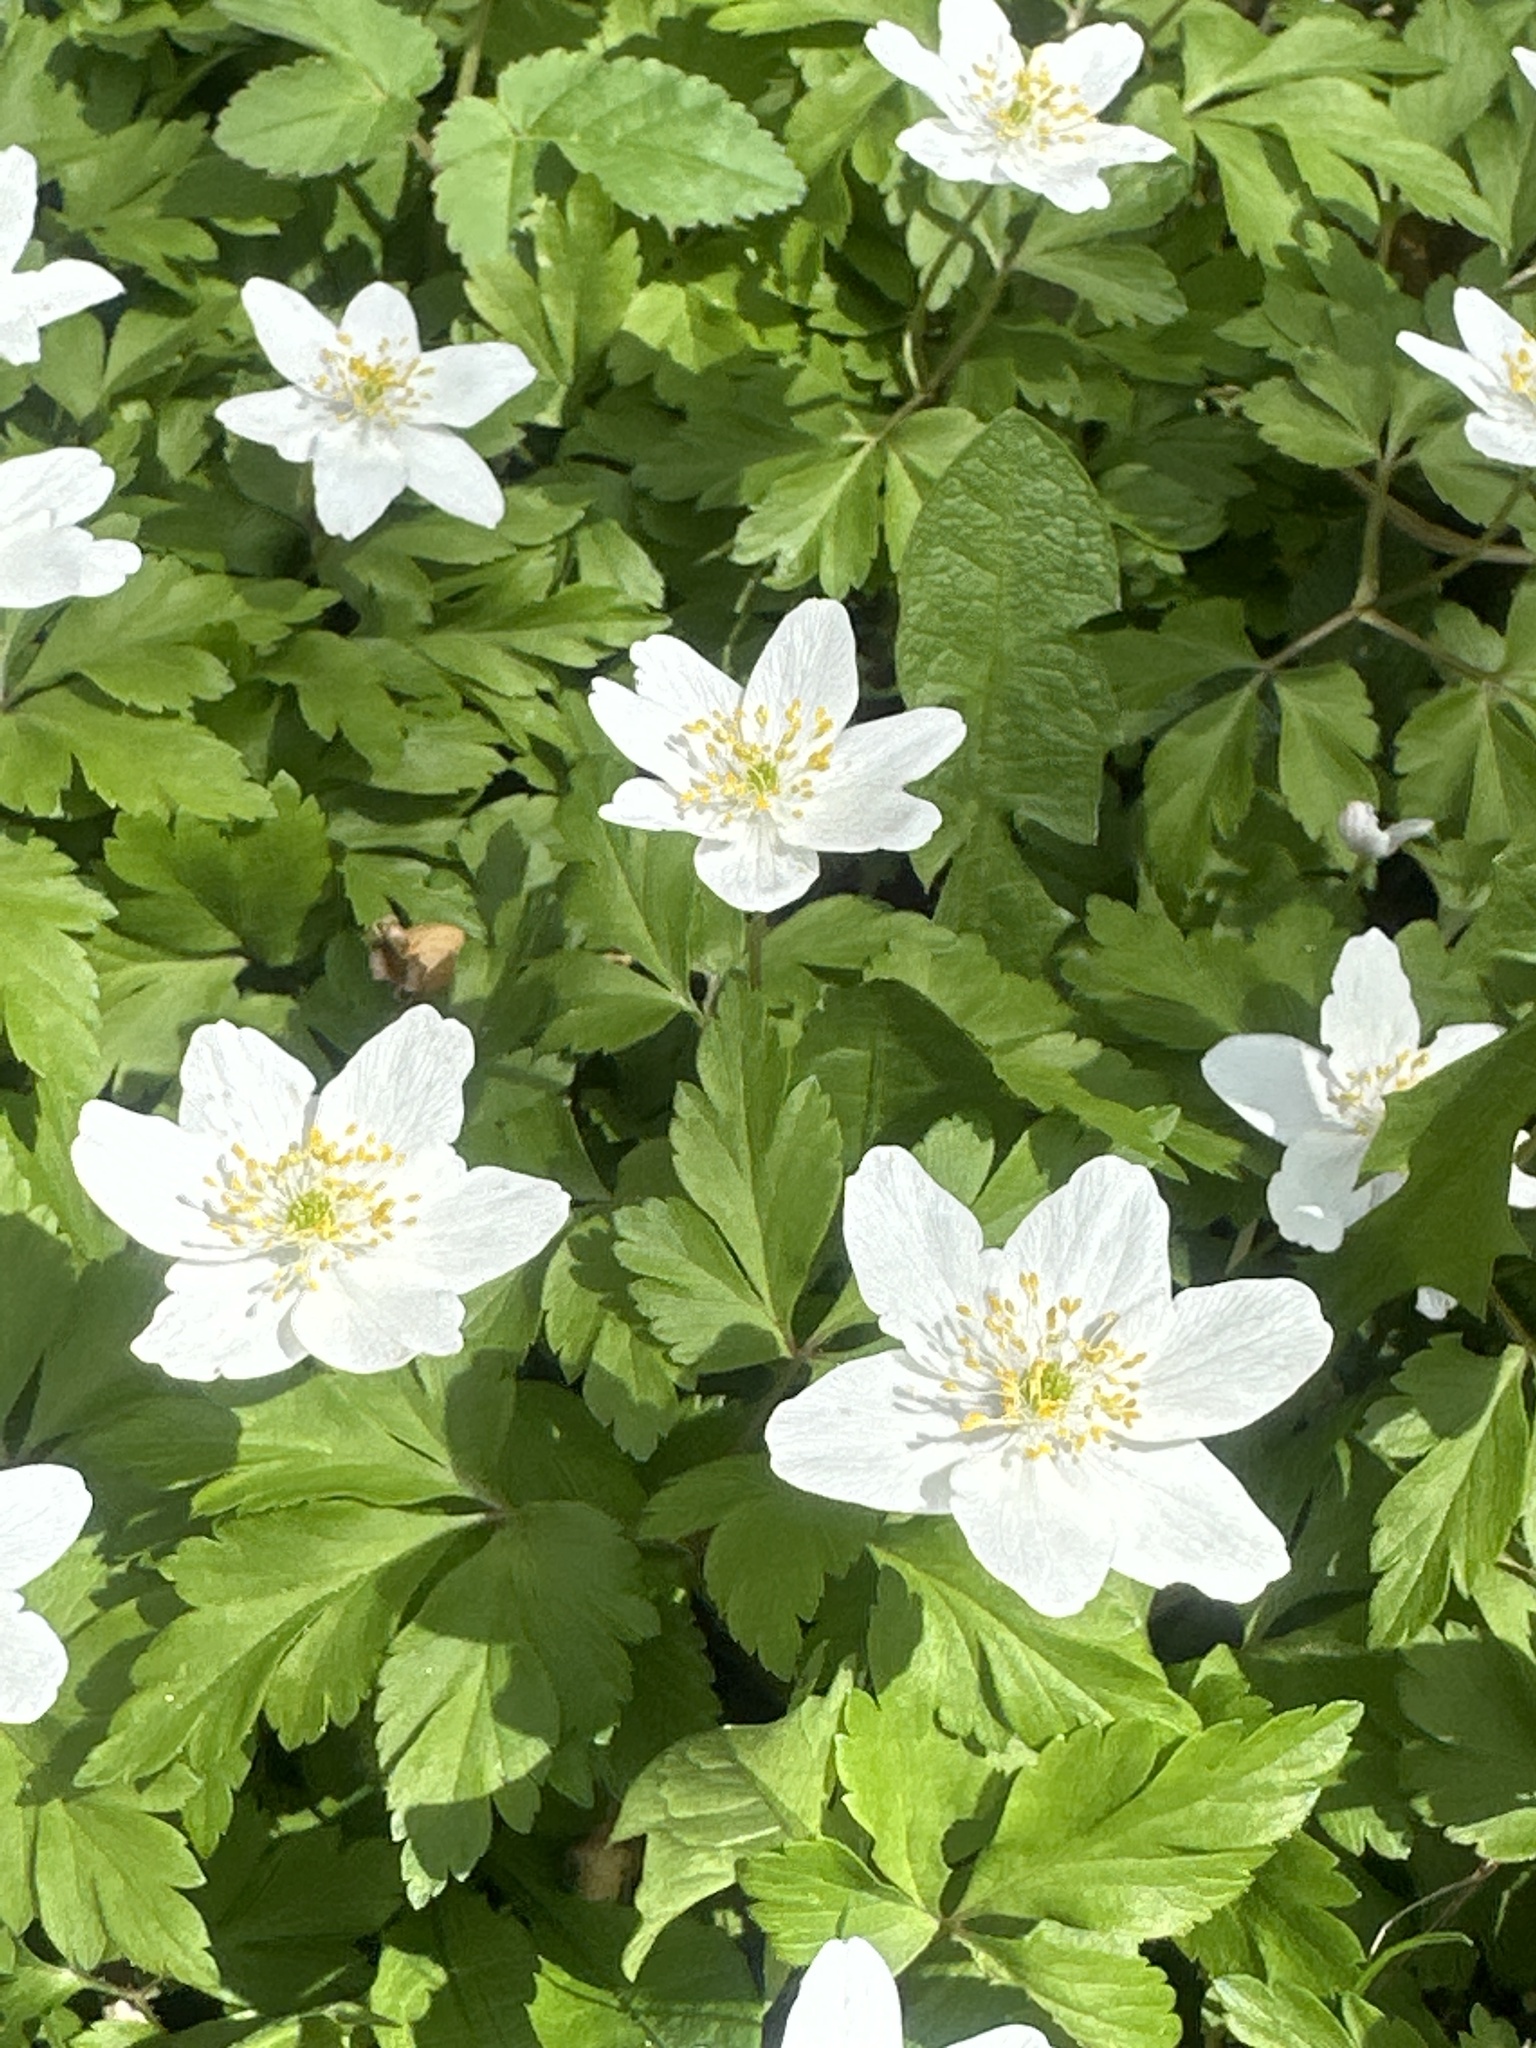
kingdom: Plantae
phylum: Tracheophyta
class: Magnoliopsida
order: Ranunculales
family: Ranunculaceae
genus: Anemone
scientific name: Anemone nemorosa
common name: Wood anemone
